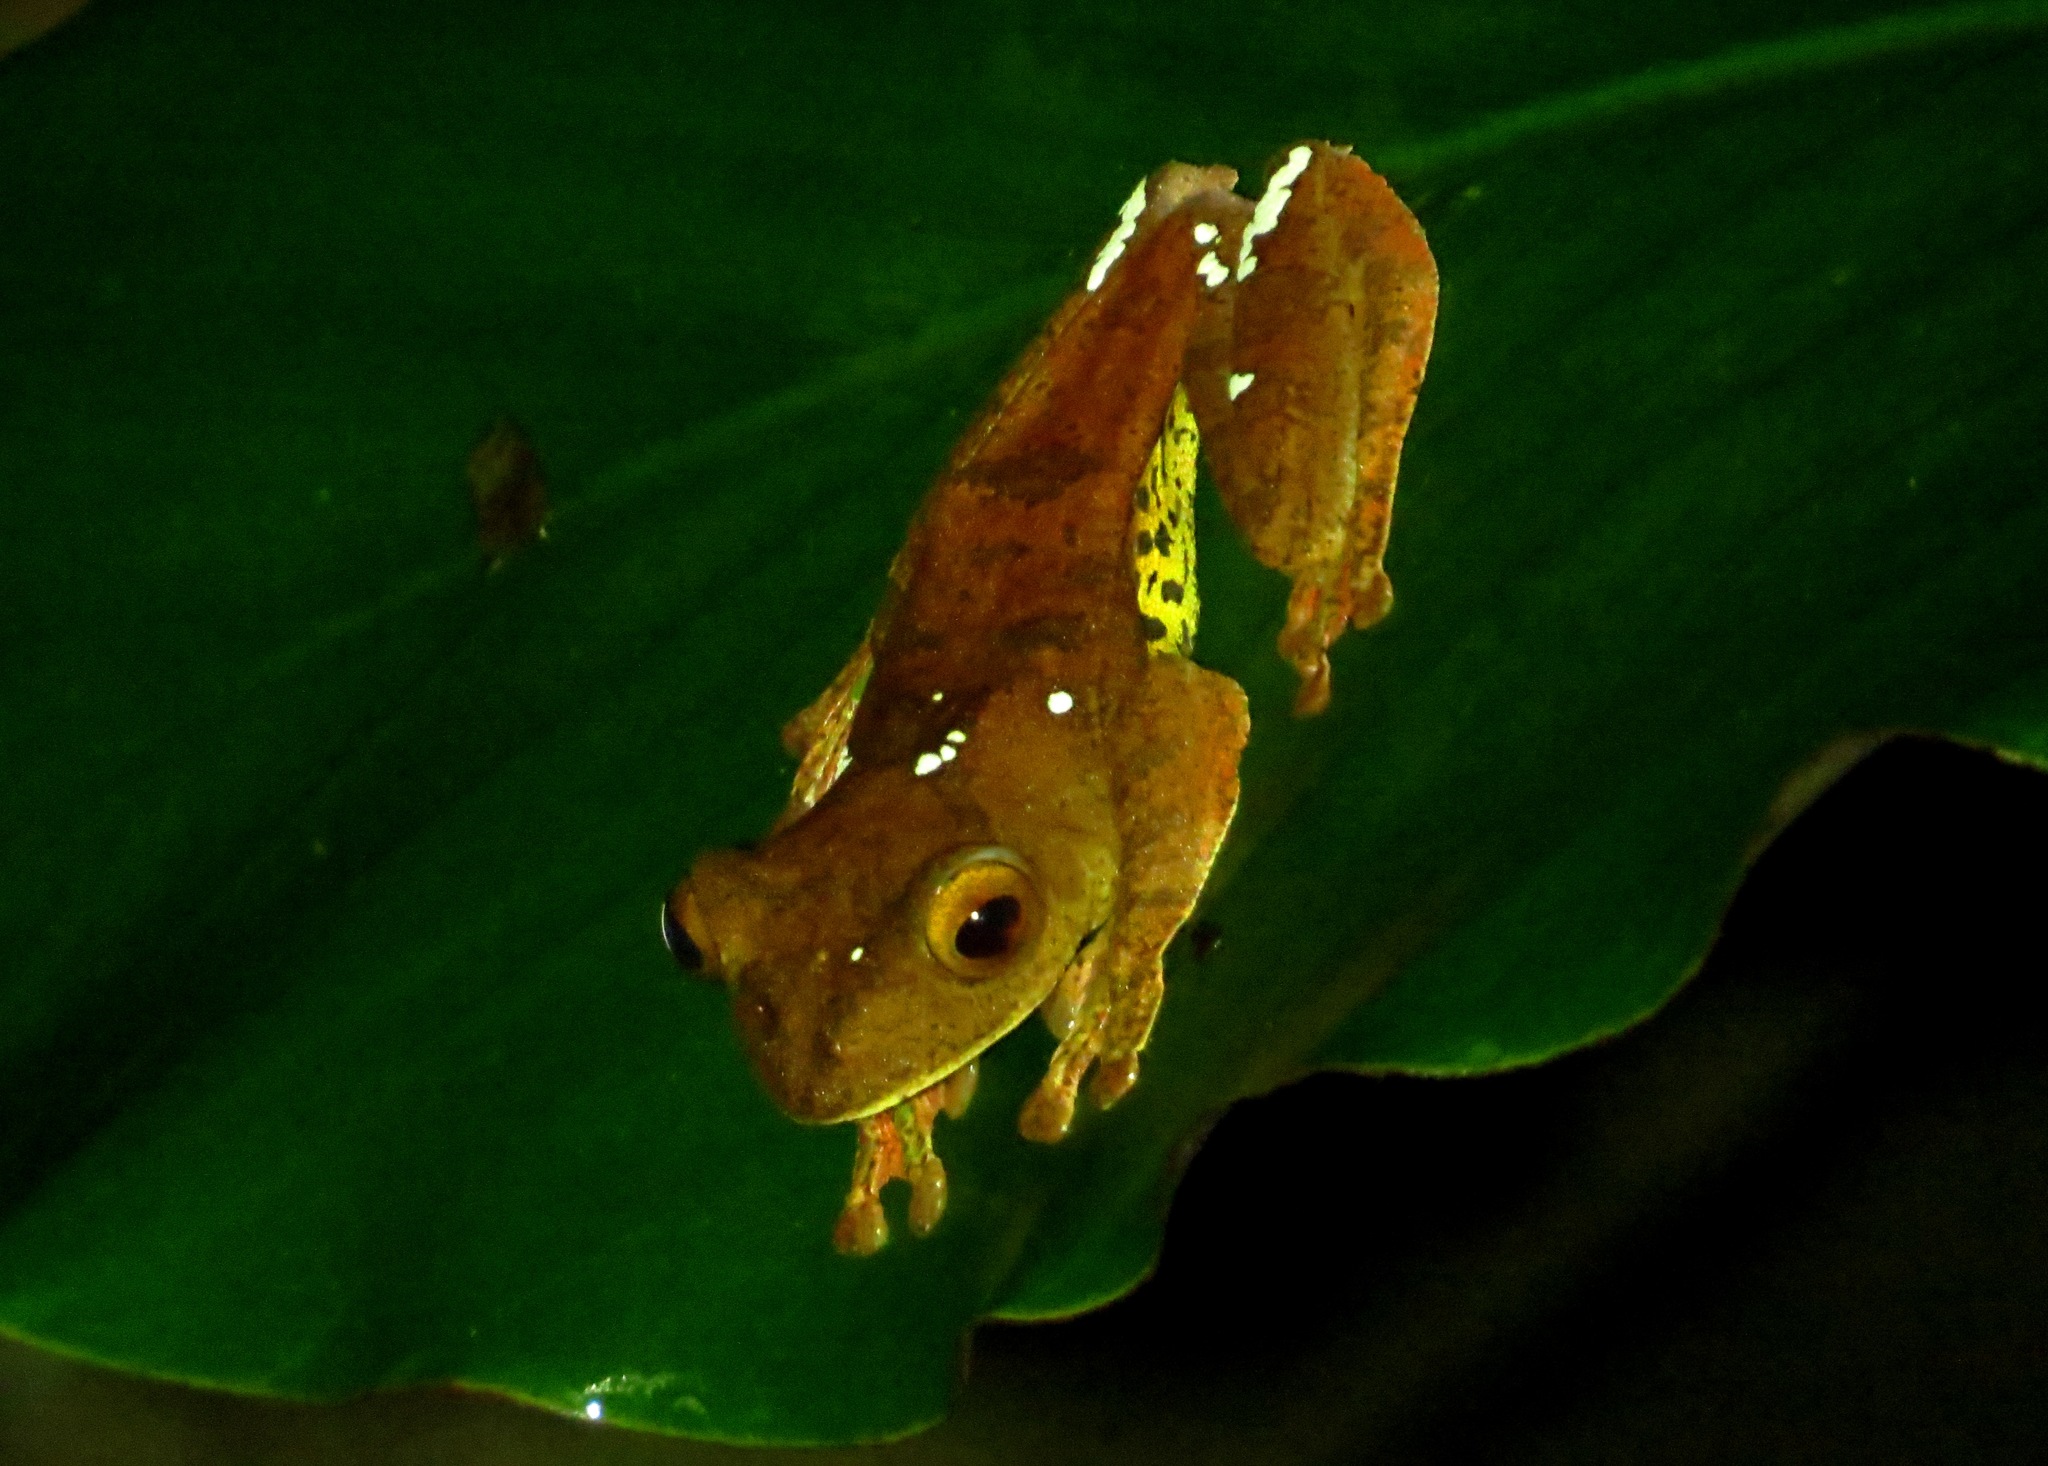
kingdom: Animalia
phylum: Chordata
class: Amphibia
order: Anura
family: Rhacophoridae
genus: Rhacophorus
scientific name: Rhacophorus pardalis
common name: Harlequin tree frog
